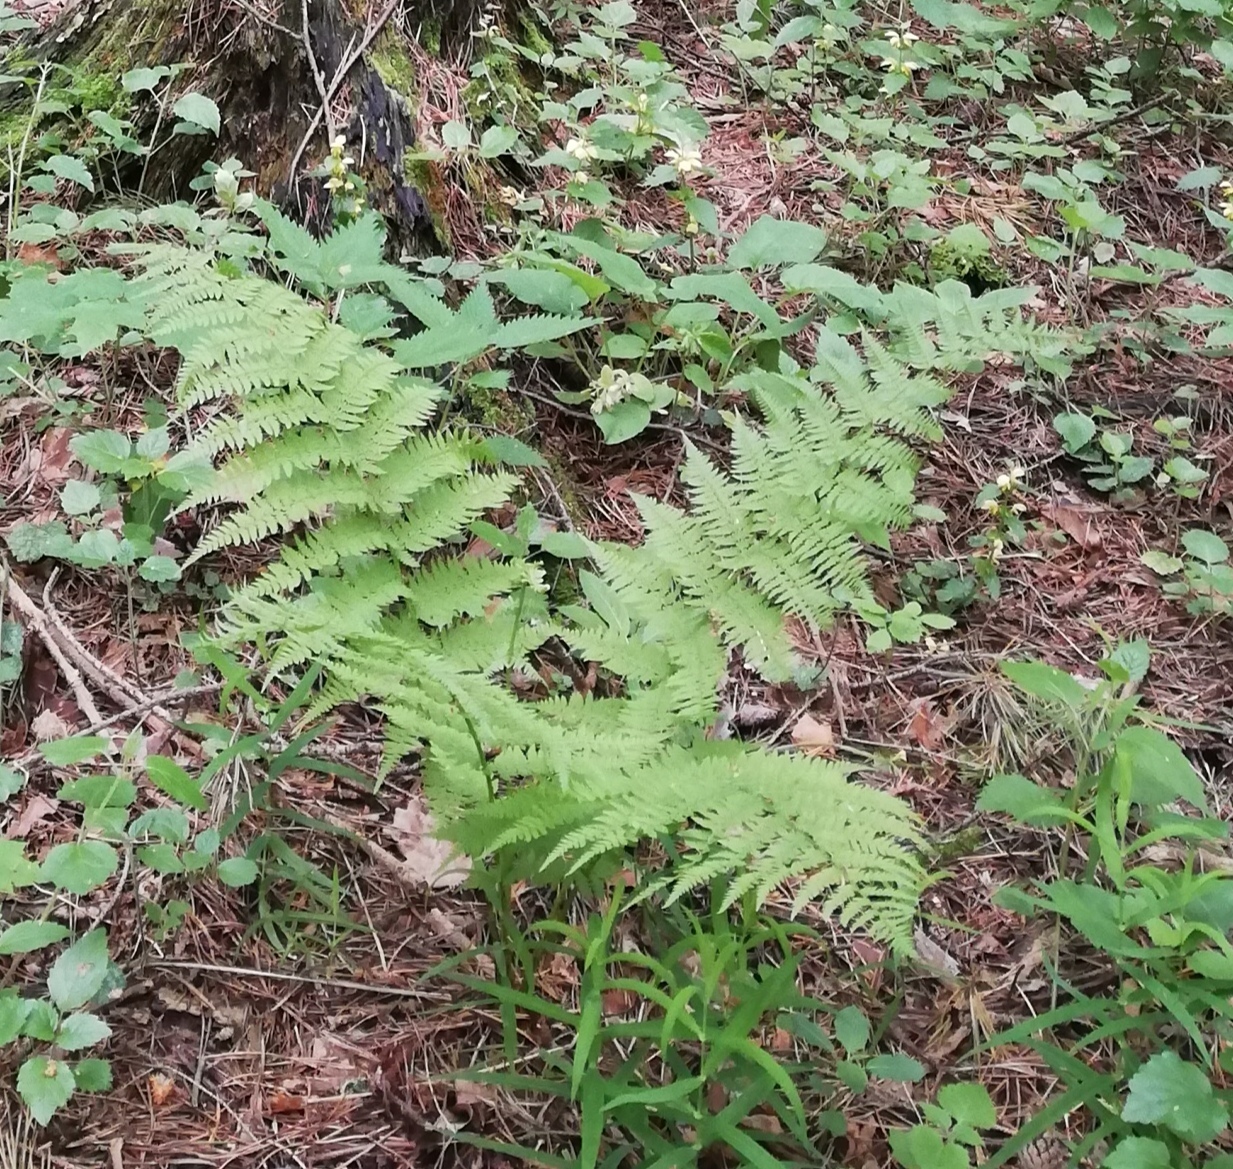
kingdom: Plantae
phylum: Tracheophyta
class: Polypodiopsida
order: Polypodiales
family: Athyriaceae
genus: Athyrium
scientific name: Athyrium filix-femina
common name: Lady fern
